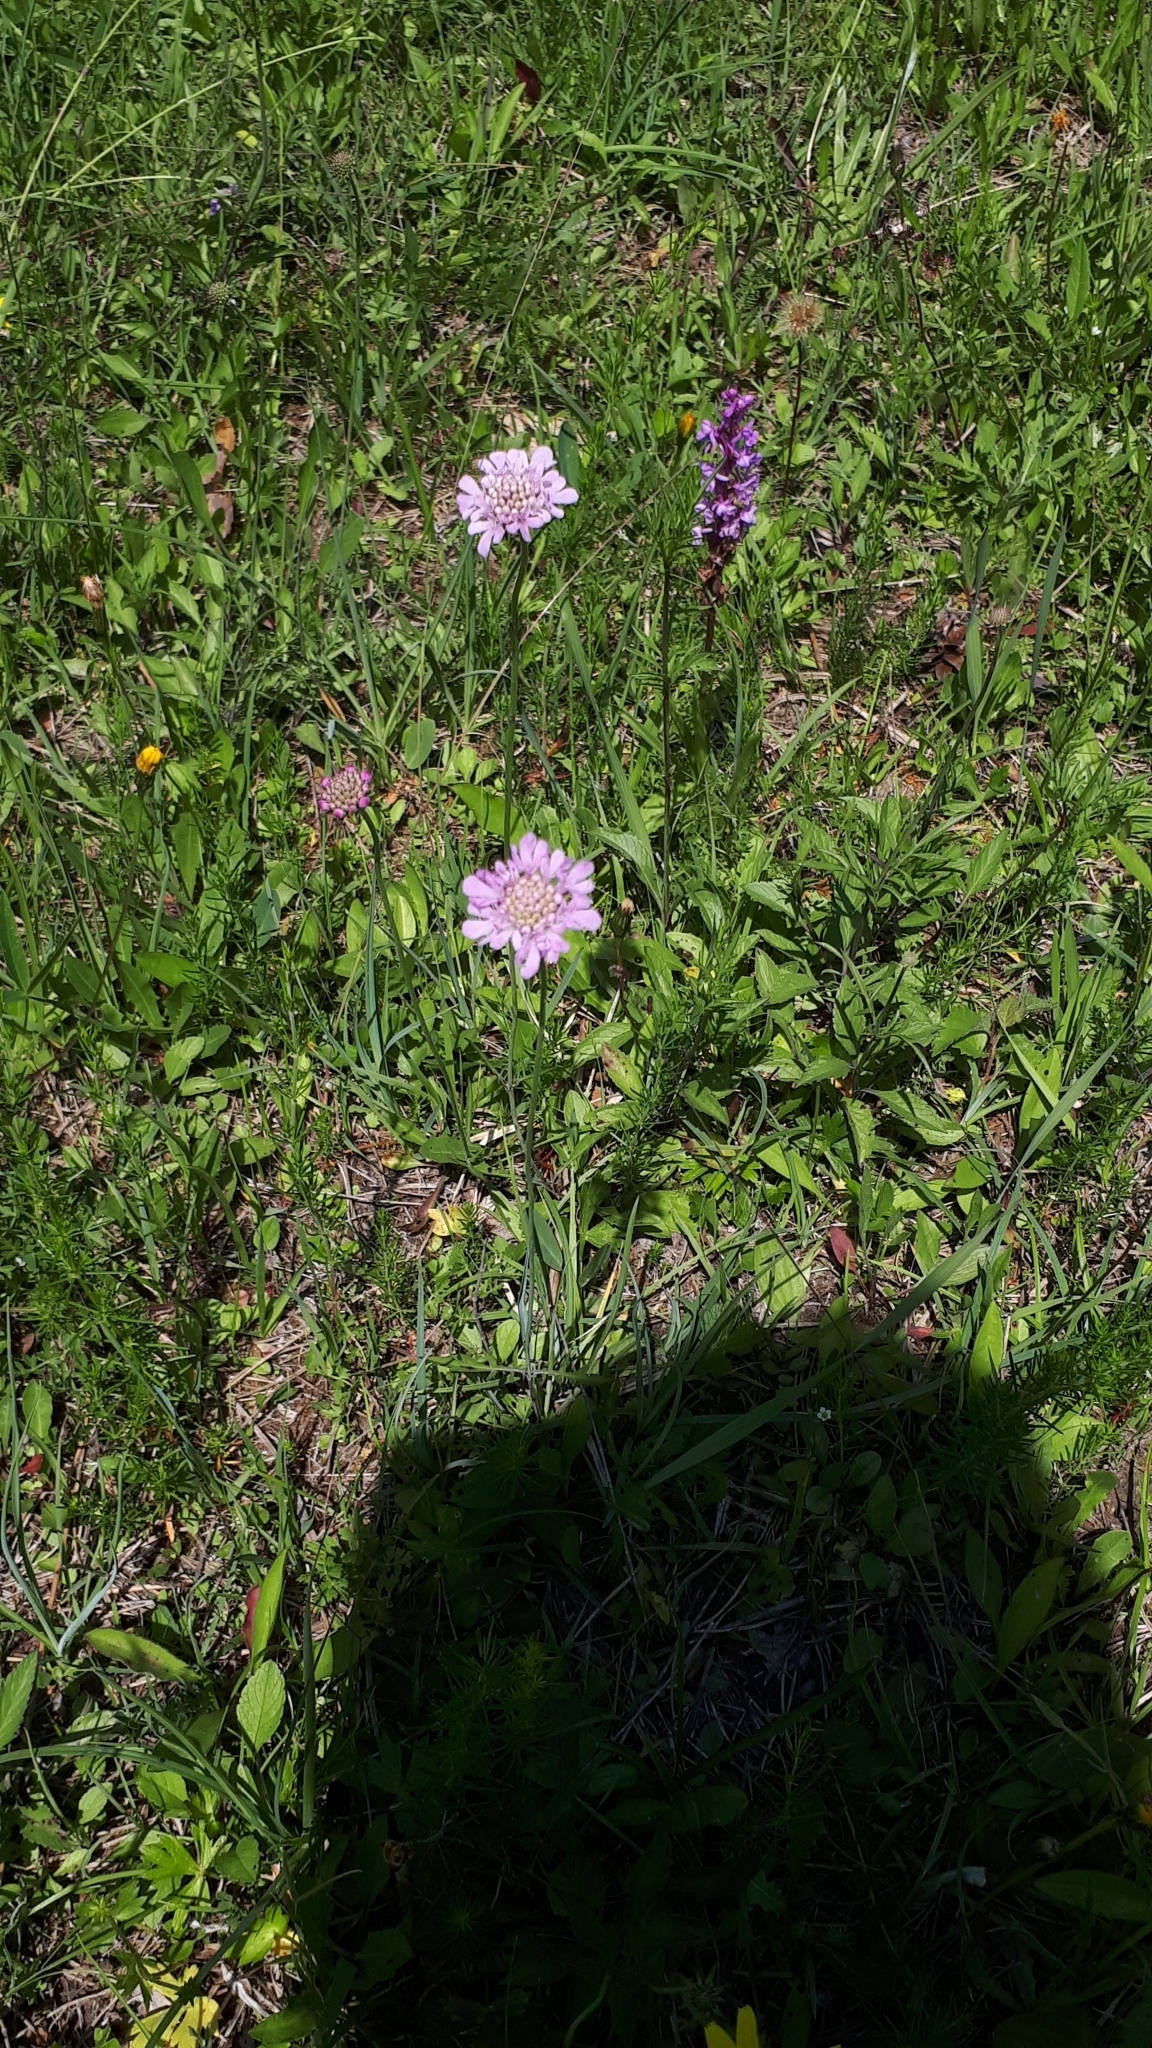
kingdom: Plantae
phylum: Tracheophyta
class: Magnoliopsida
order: Dipsacales
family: Caprifoliaceae
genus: Scabiosa
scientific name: Scabiosa columbaria
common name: Small scabious
